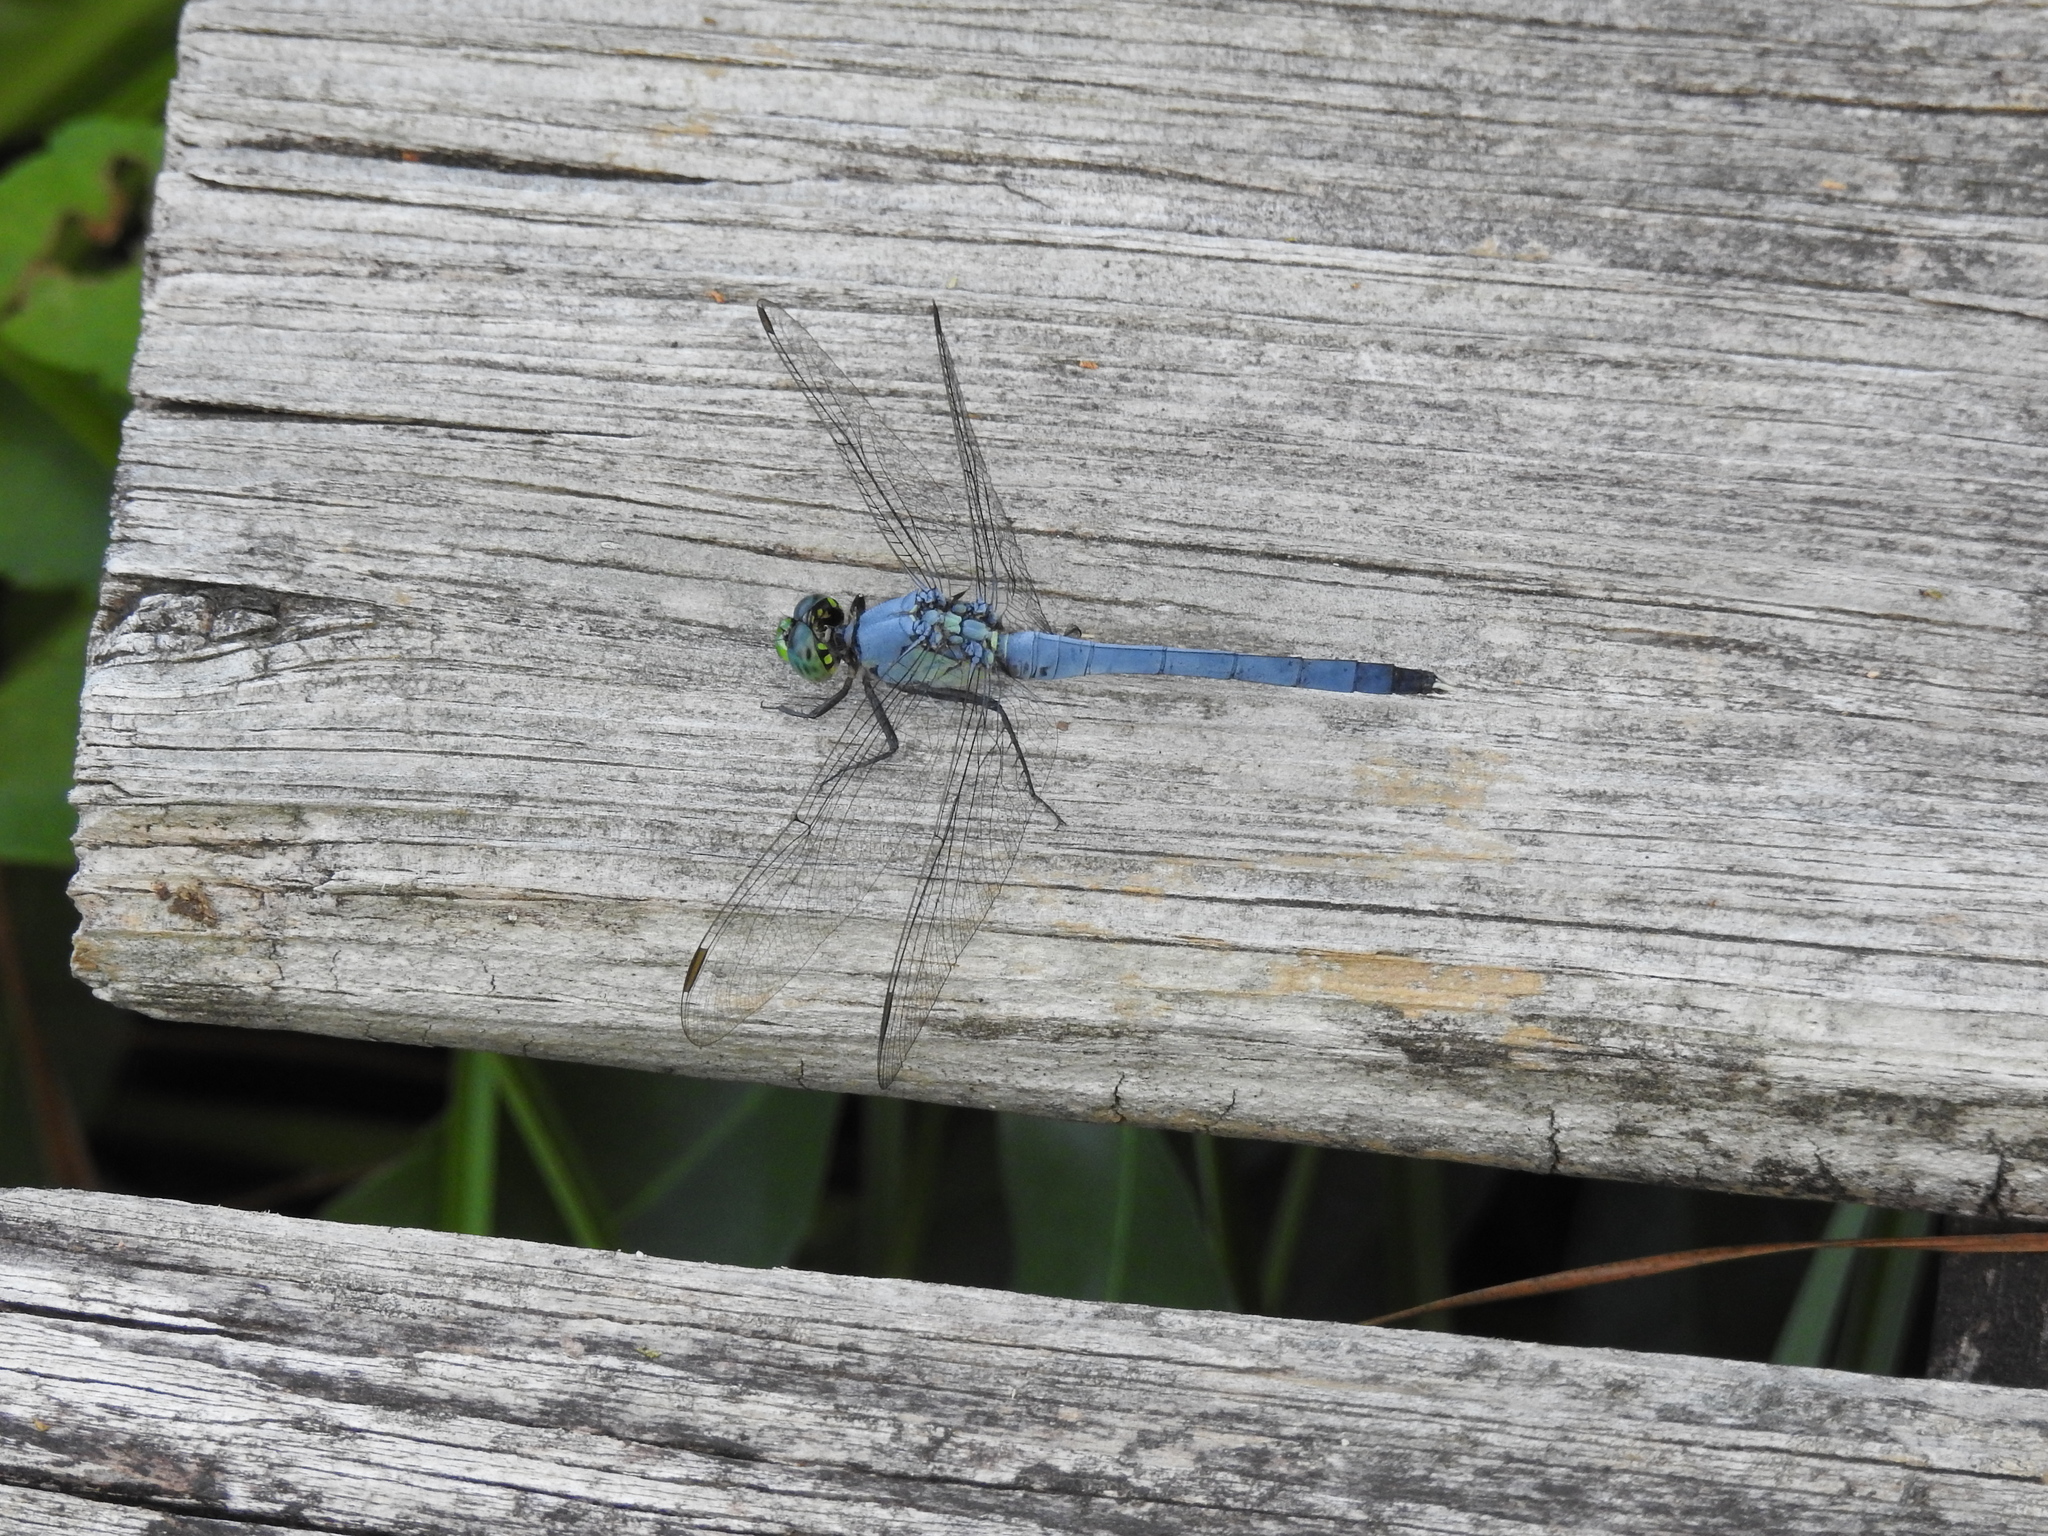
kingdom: Animalia
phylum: Arthropoda
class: Insecta
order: Odonata
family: Libellulidae
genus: Erythemis
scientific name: Erythemis simplicicollis
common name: Eastern pondhawk
